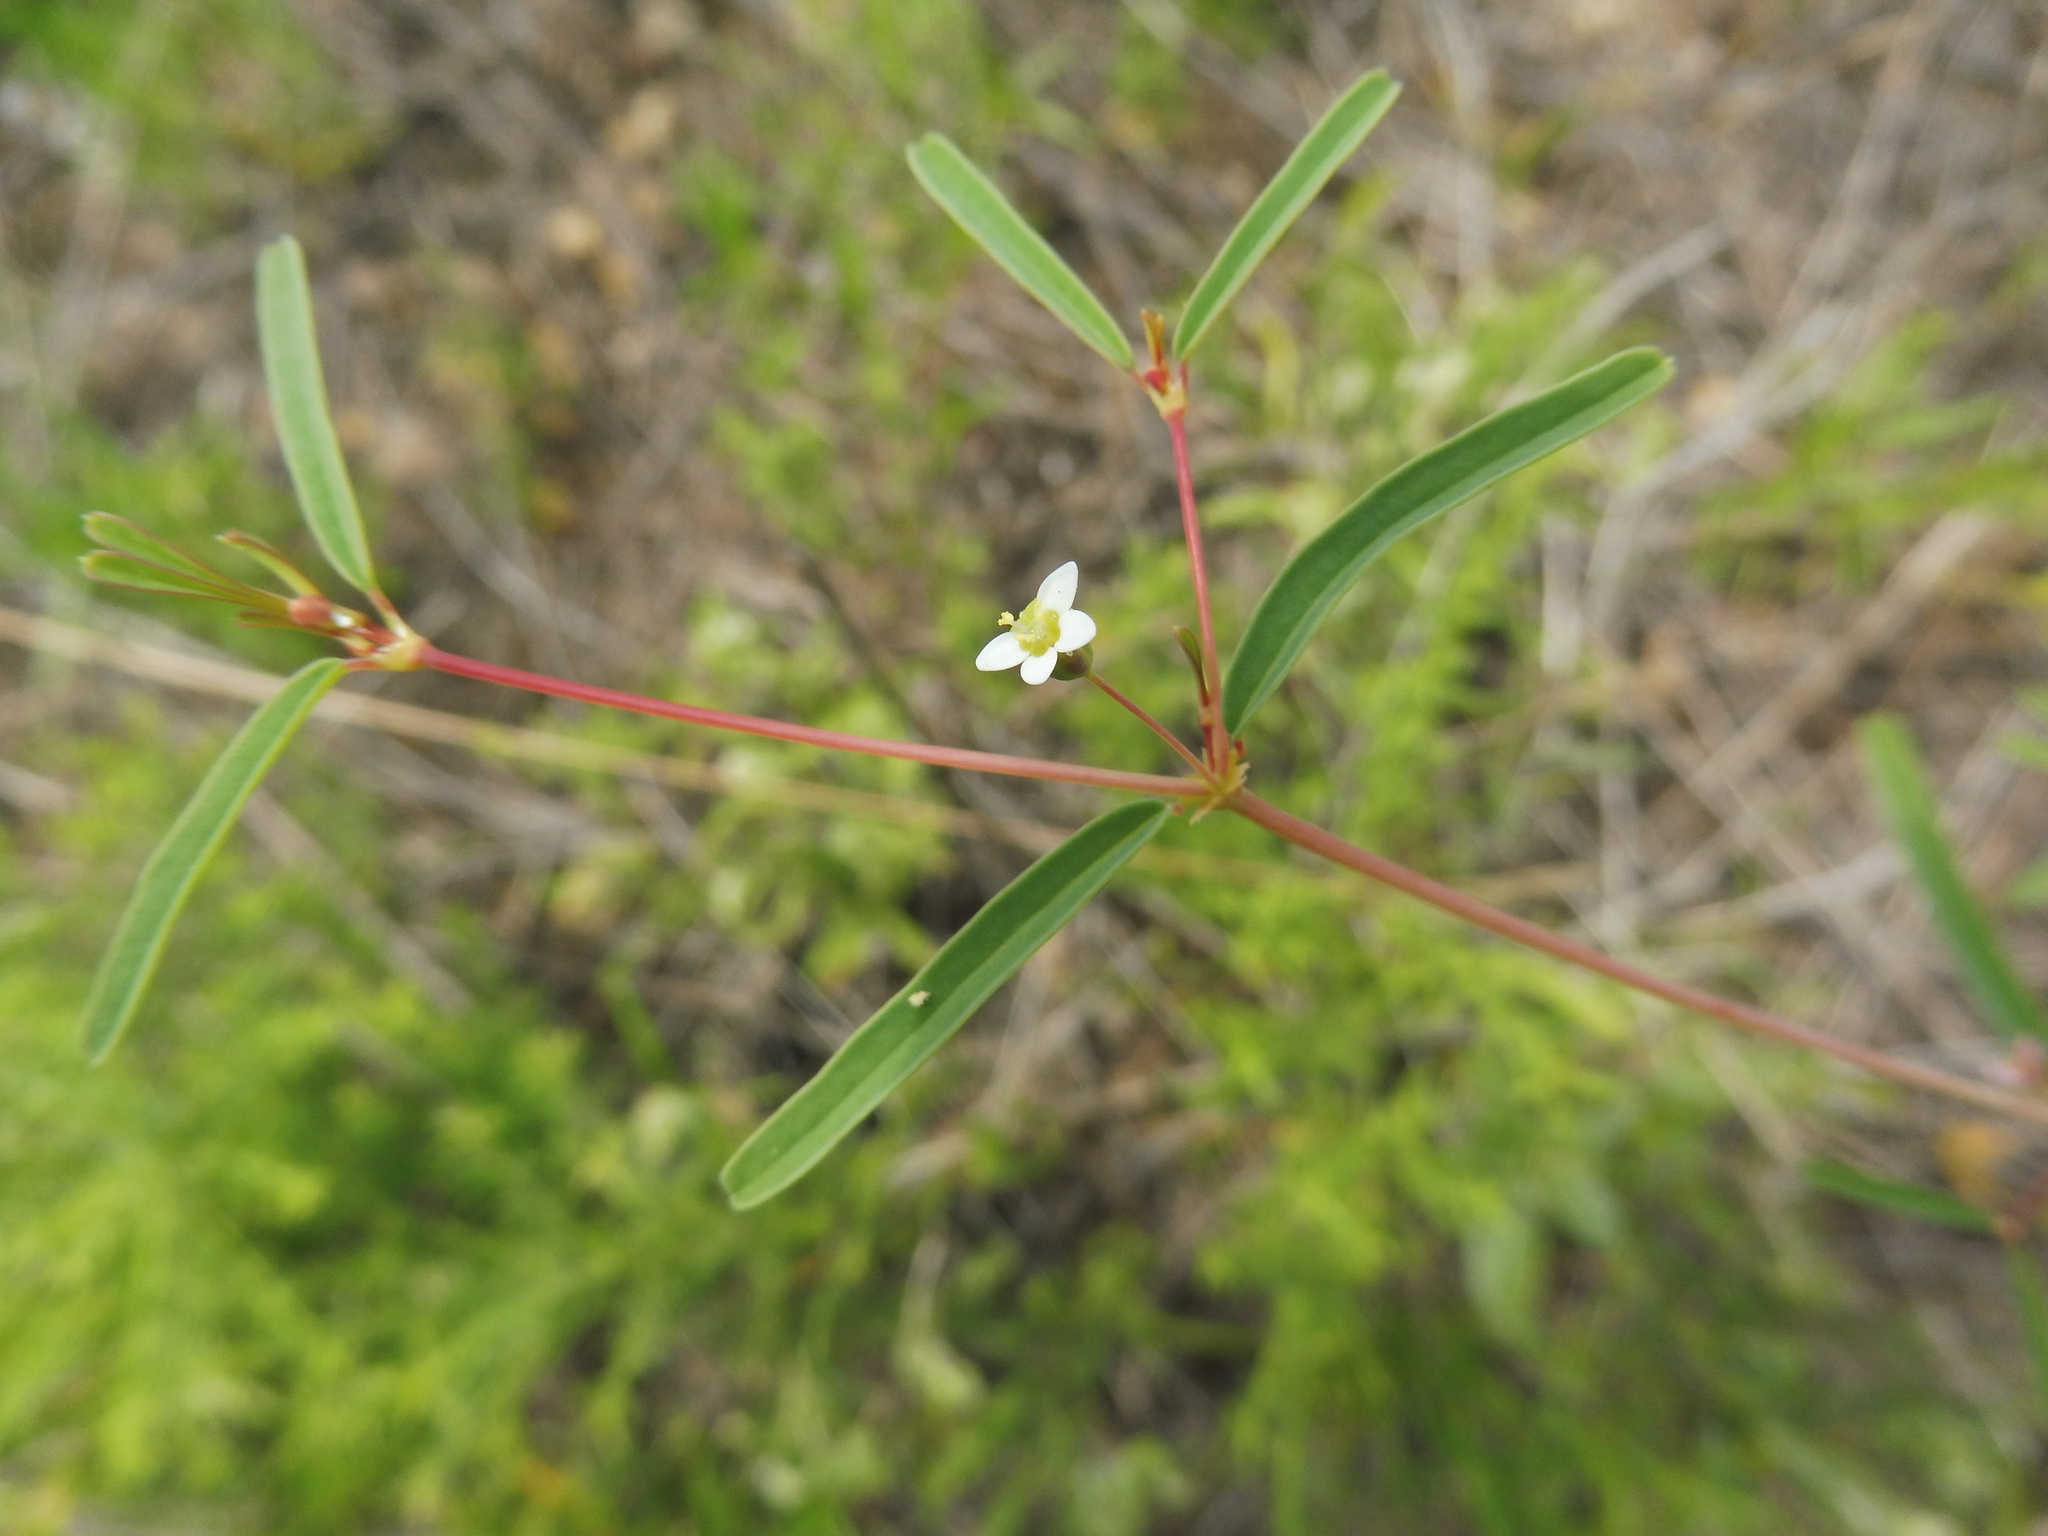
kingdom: Plantae
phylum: Tracheophyta
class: Magnoliopsida
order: Malpighiales
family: Euphorbiaceae
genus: Euphorbia
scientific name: Euphorbia missurica
